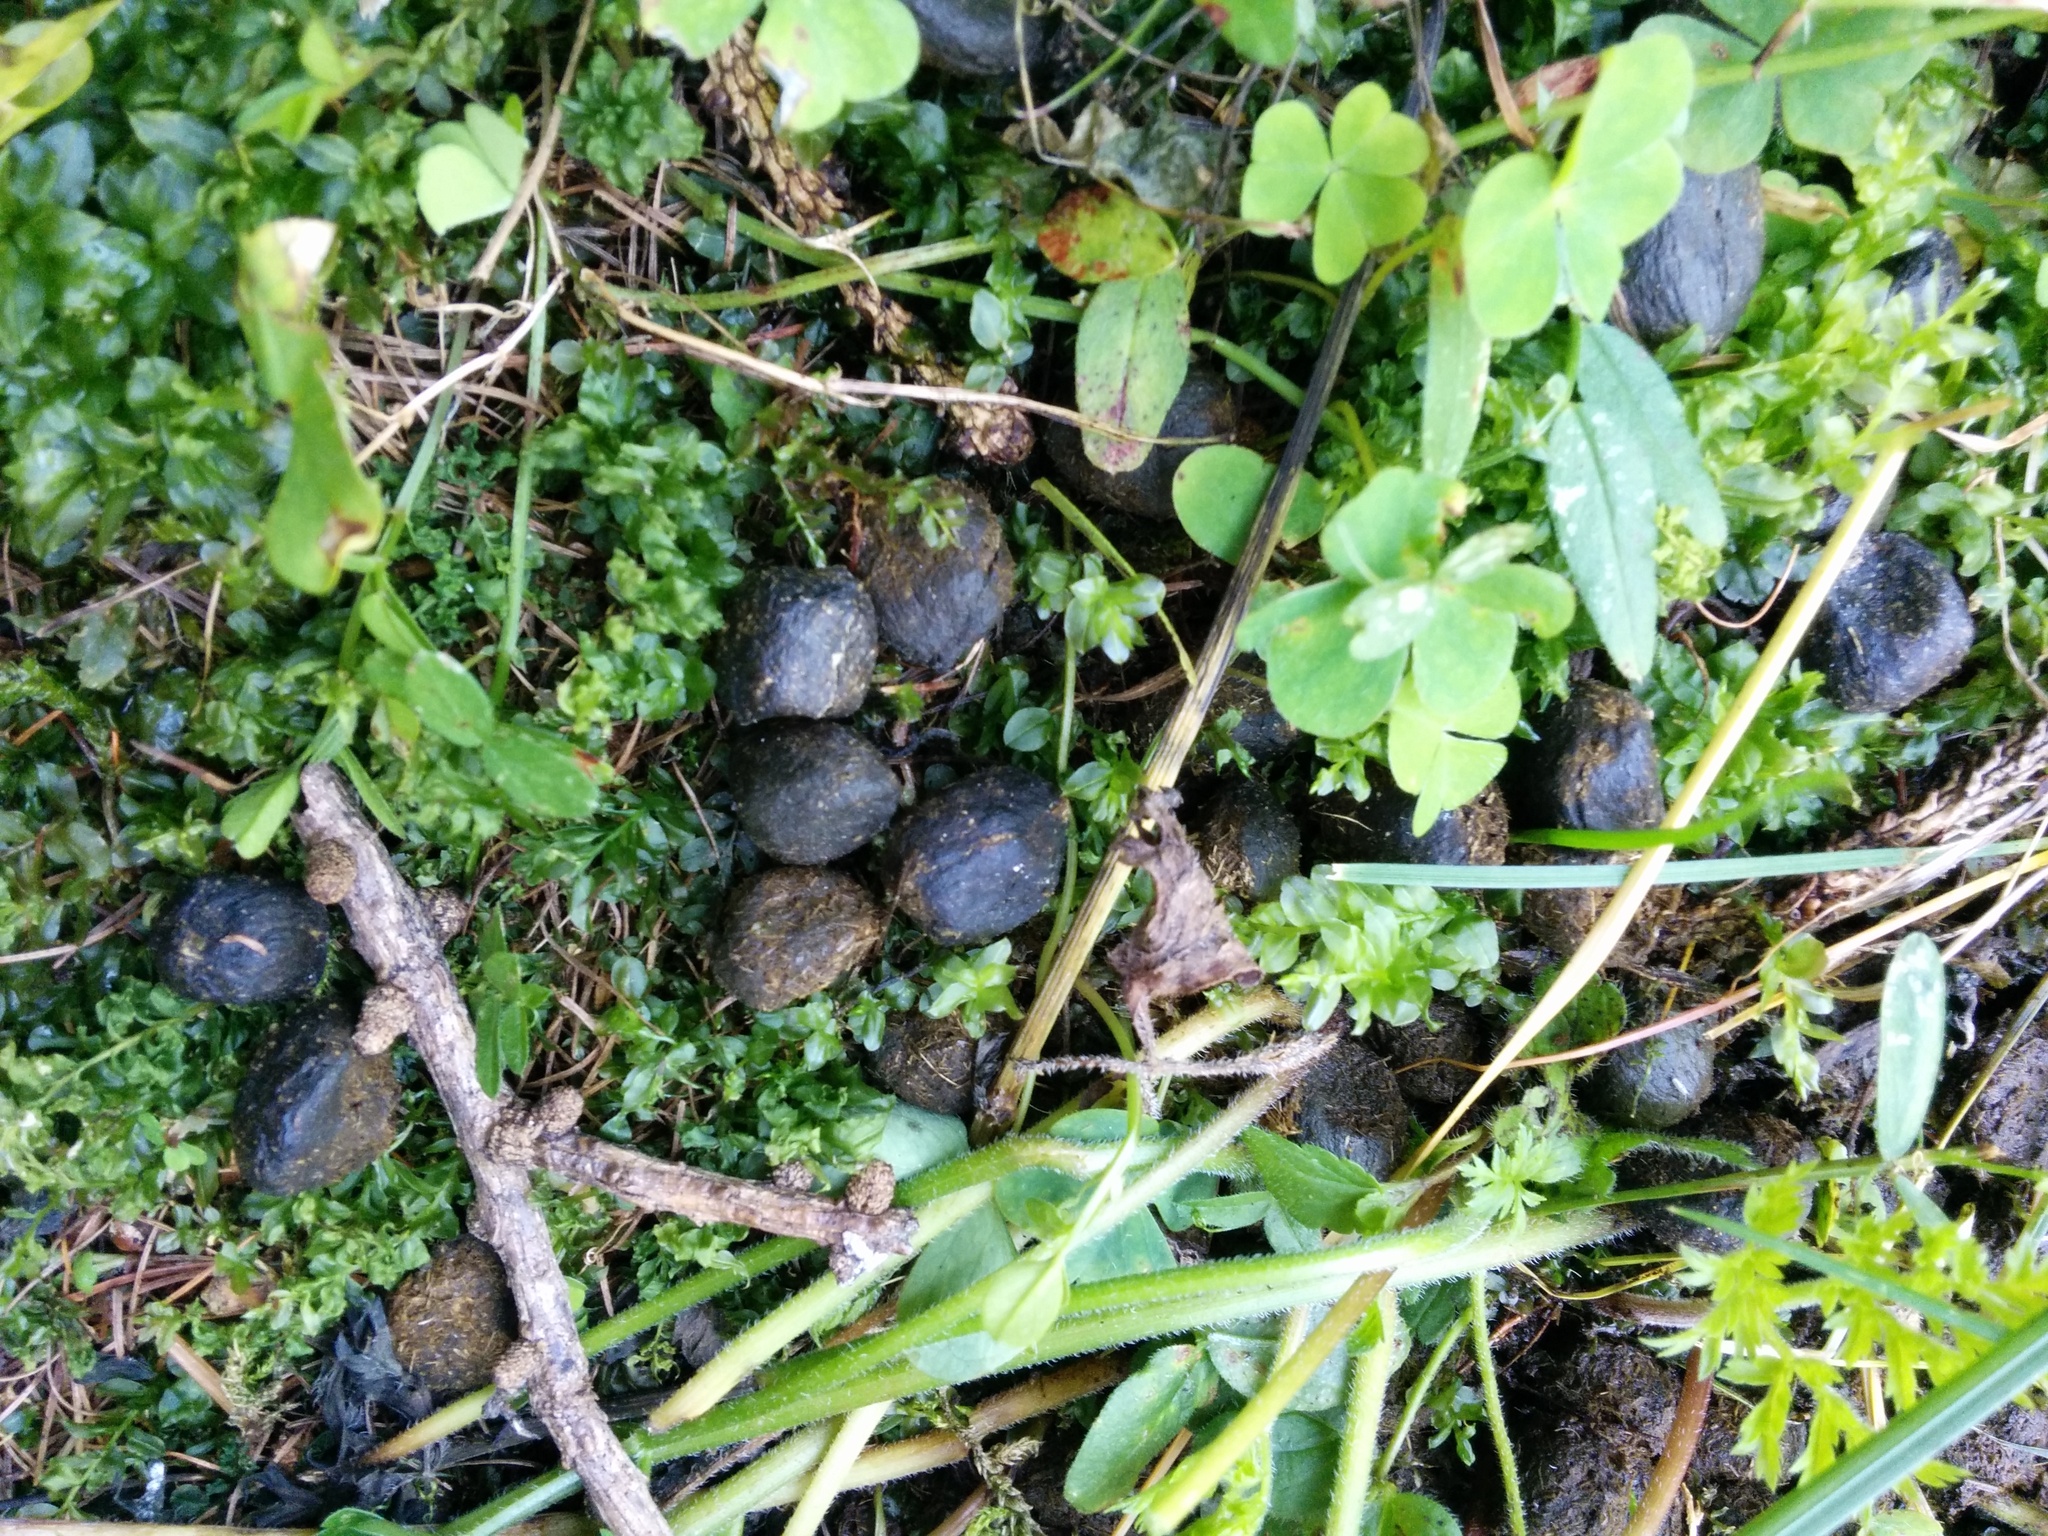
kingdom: Animalia
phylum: Chordata
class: Mammalia
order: Artiodactyla
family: Bovidae
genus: Rupicapra
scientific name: Rupicapra rupicapra
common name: Chamois
